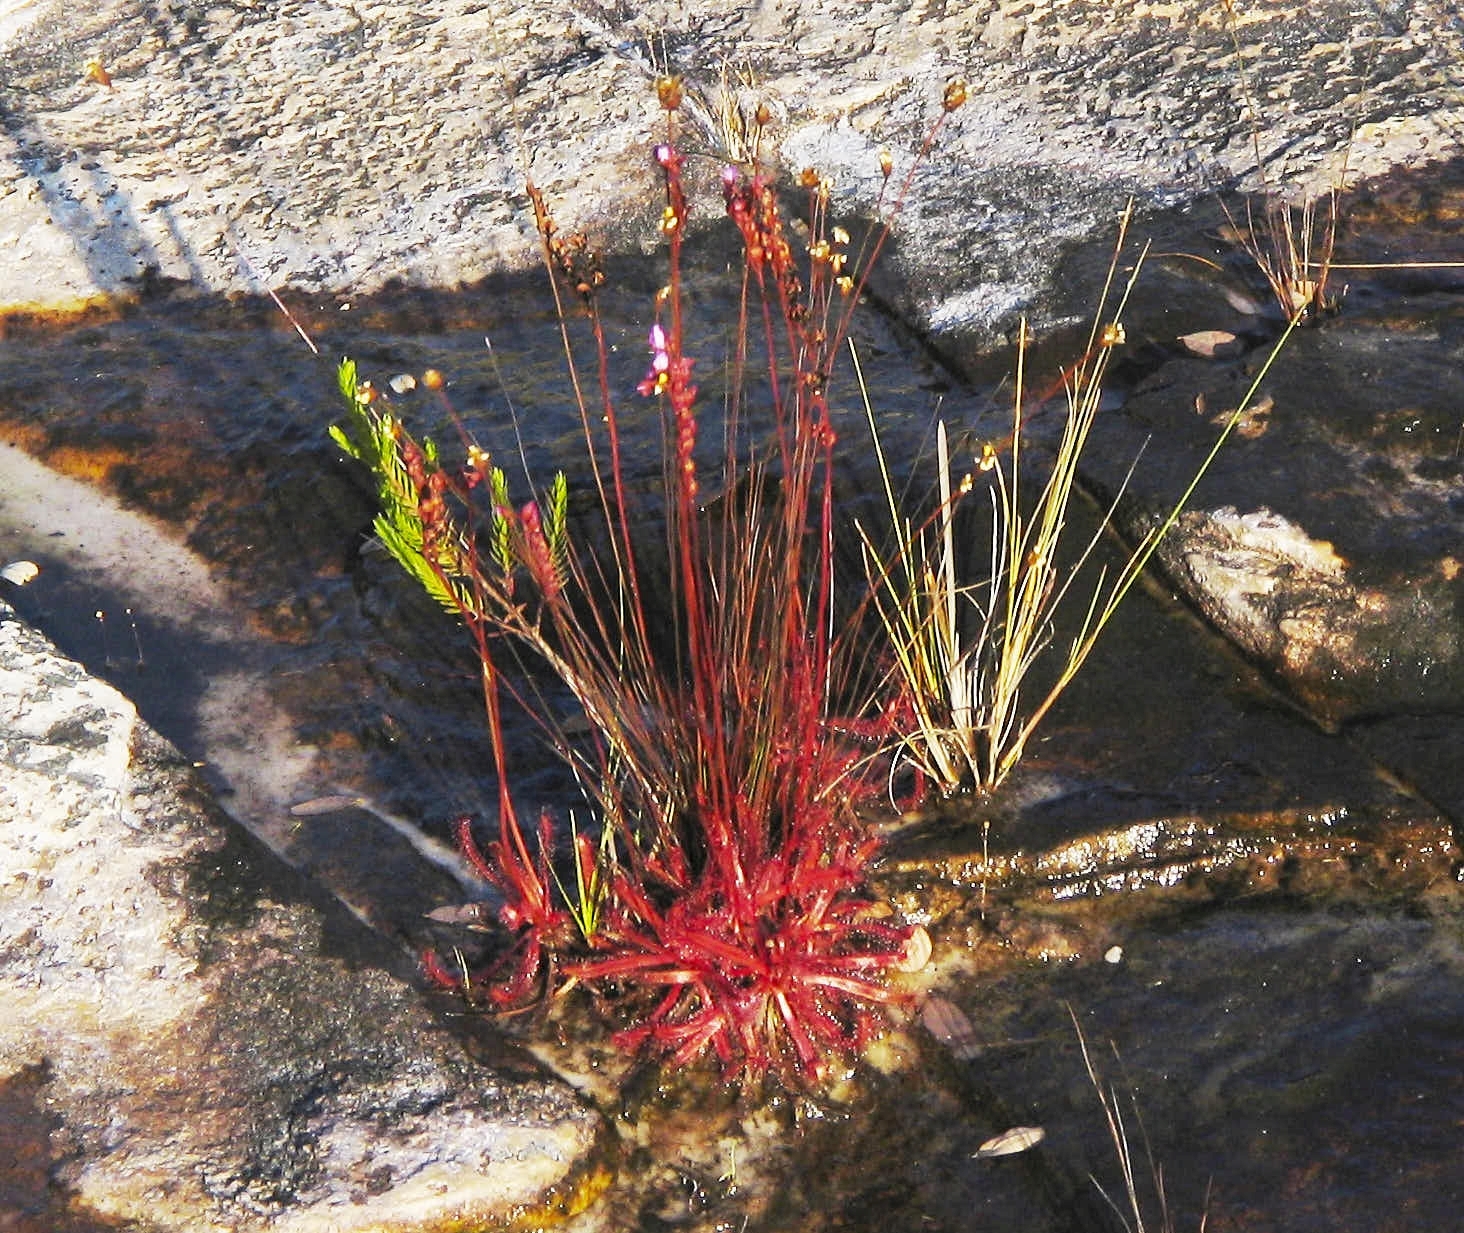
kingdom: Plantae
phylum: Tracheophyta
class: Magnoliopsida
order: Caryophyllales
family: Droseraceae
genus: Drosera
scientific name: Drosera latifolia
